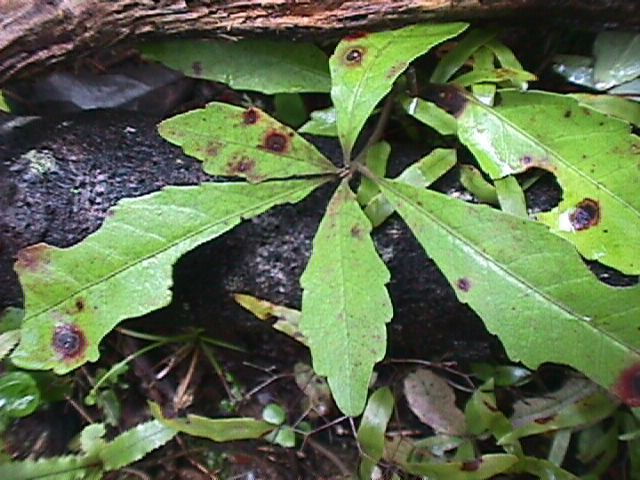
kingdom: Plantae
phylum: Tracheophyta
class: Magnoliopsida
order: Asterales
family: Alseuosmiaceae
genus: Alseuosmia
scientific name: Alseuosmia macrophylla
